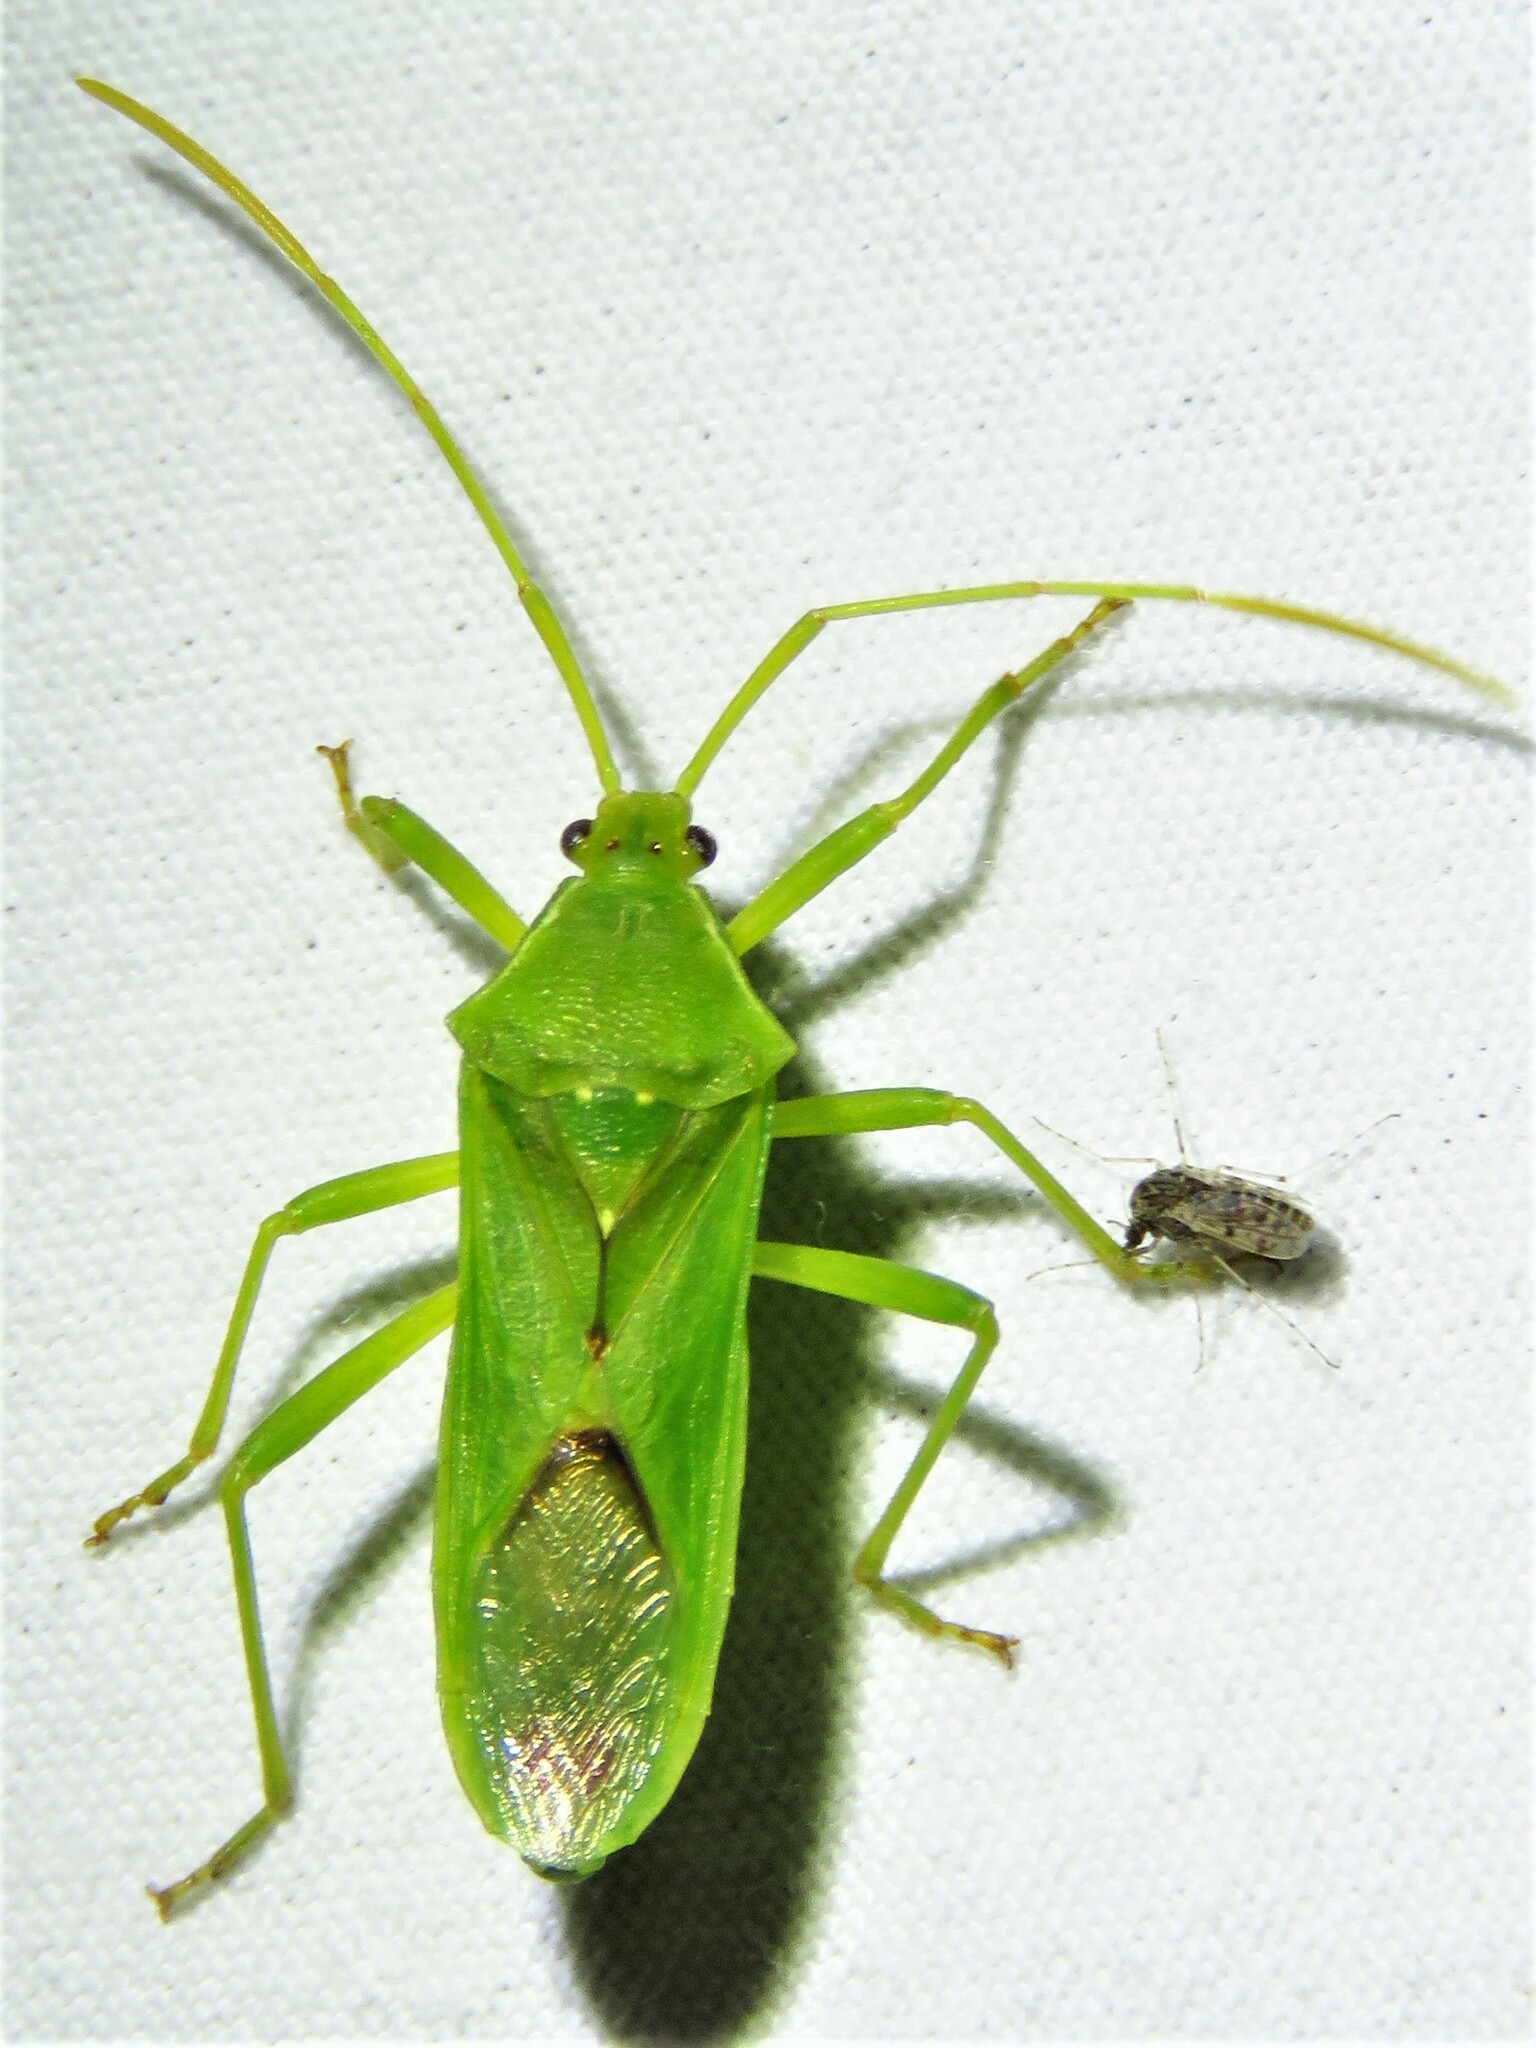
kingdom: Animalia
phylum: Arthropoda
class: Insecta
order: Hemiptera
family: Coreidae
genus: Savius
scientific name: Savius jurgiosus
